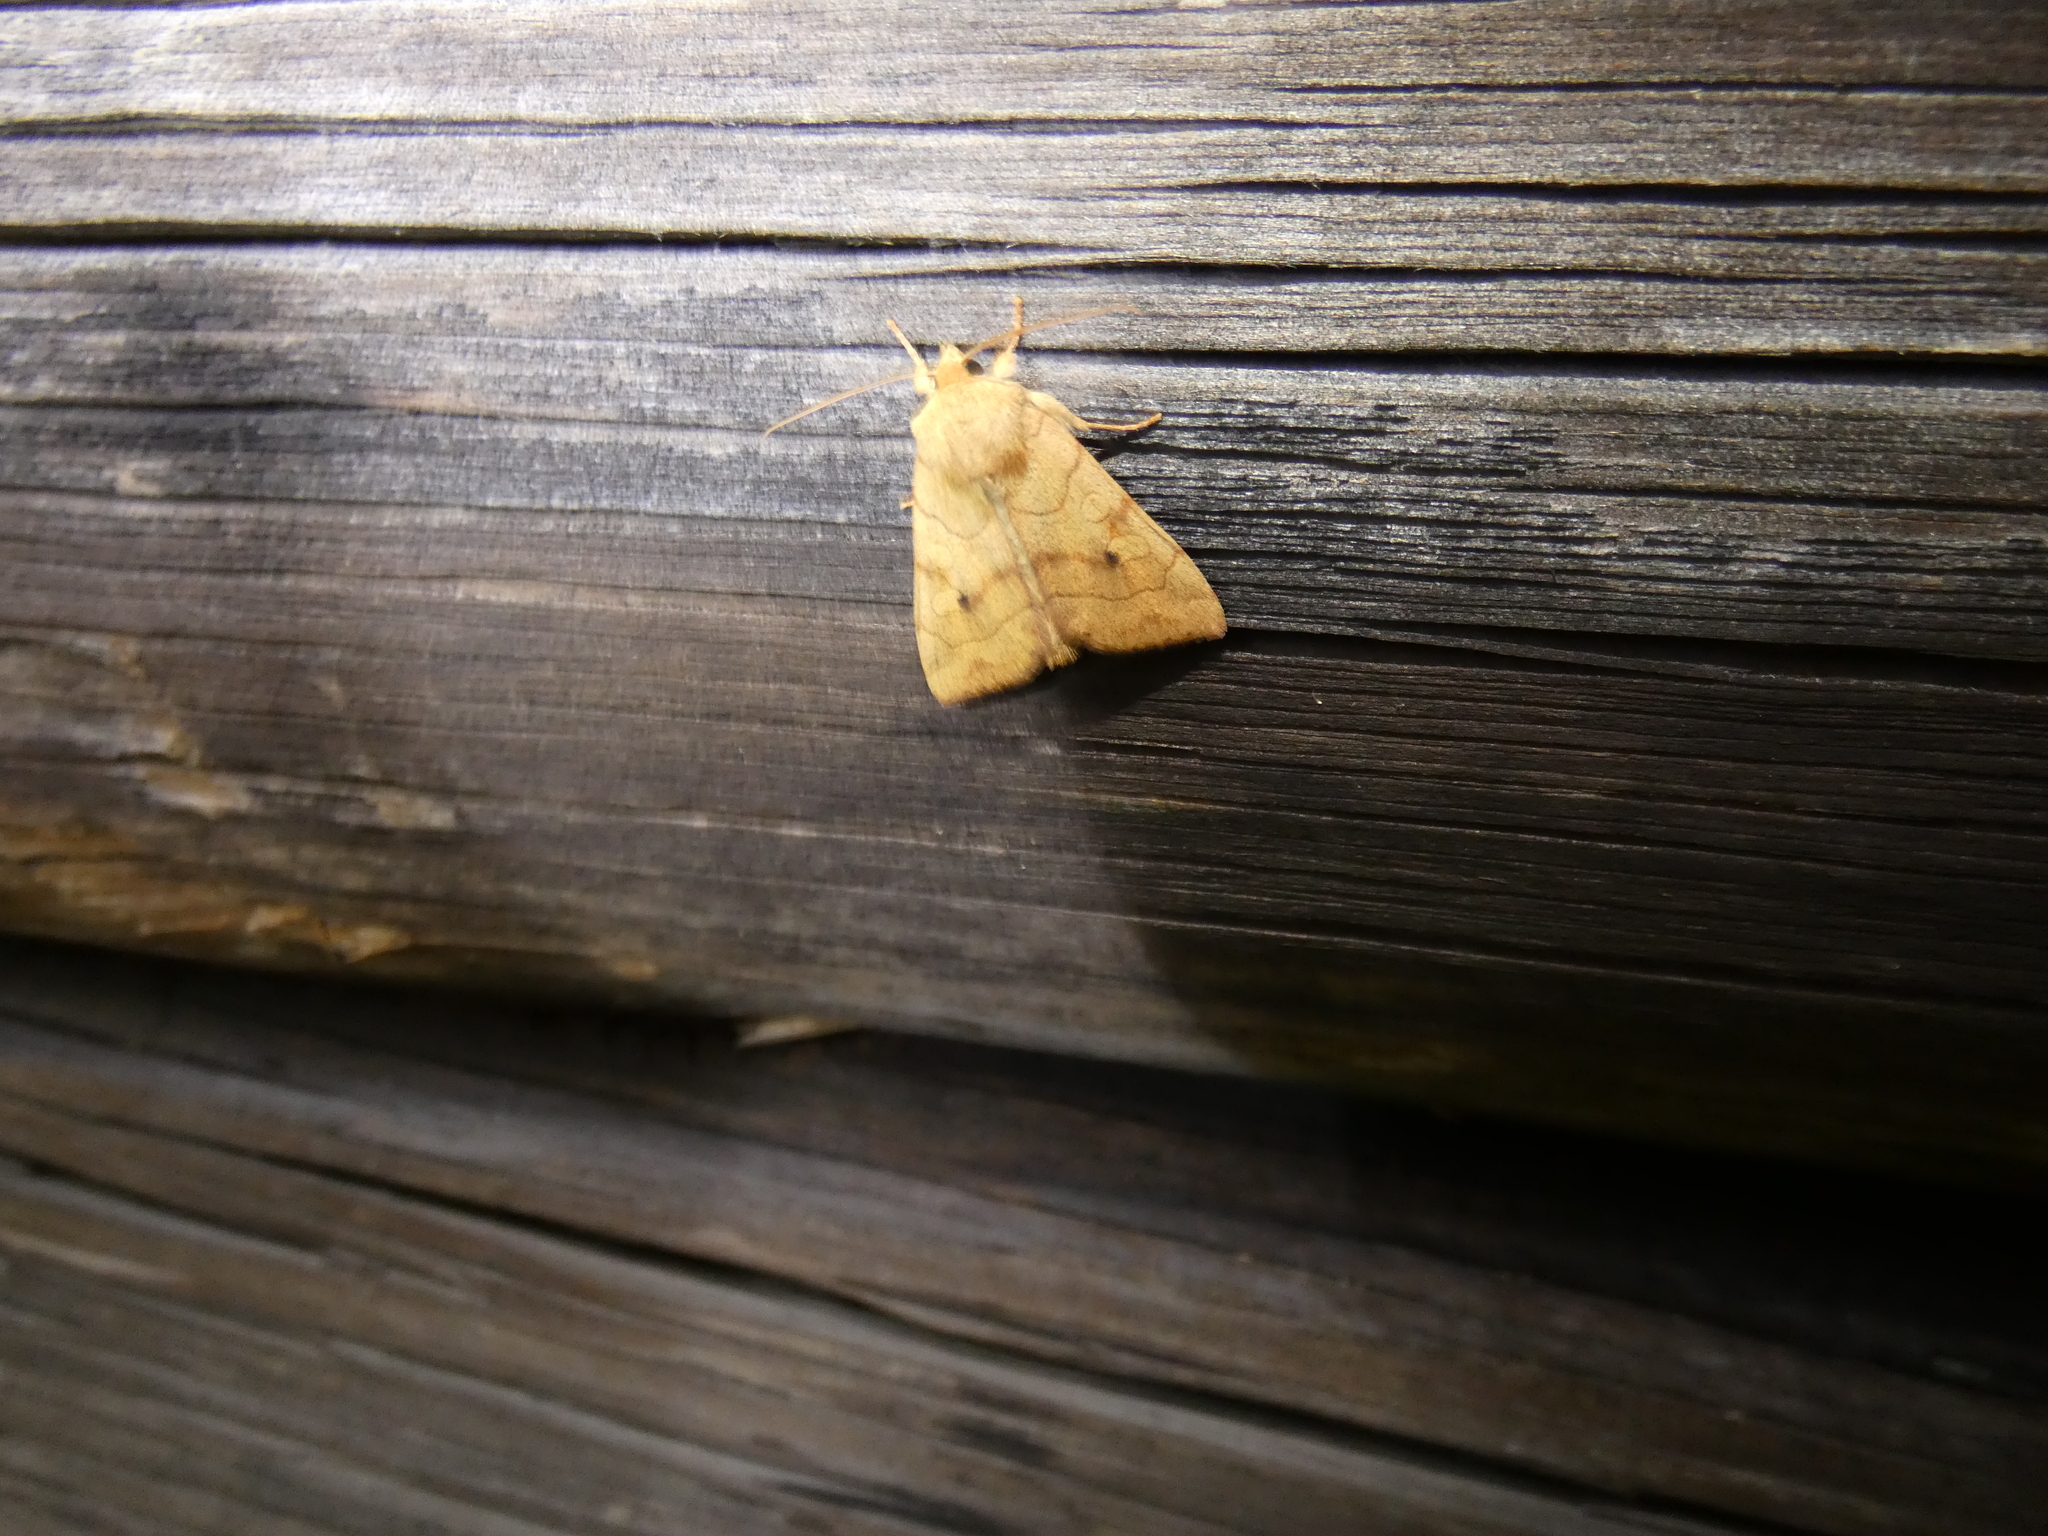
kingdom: Animalia
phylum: Arthropoda
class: Insecta
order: Lepidoptera
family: Noctuidae
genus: Enargia
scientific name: Enargia paleacea
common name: Angle-striped sallow
